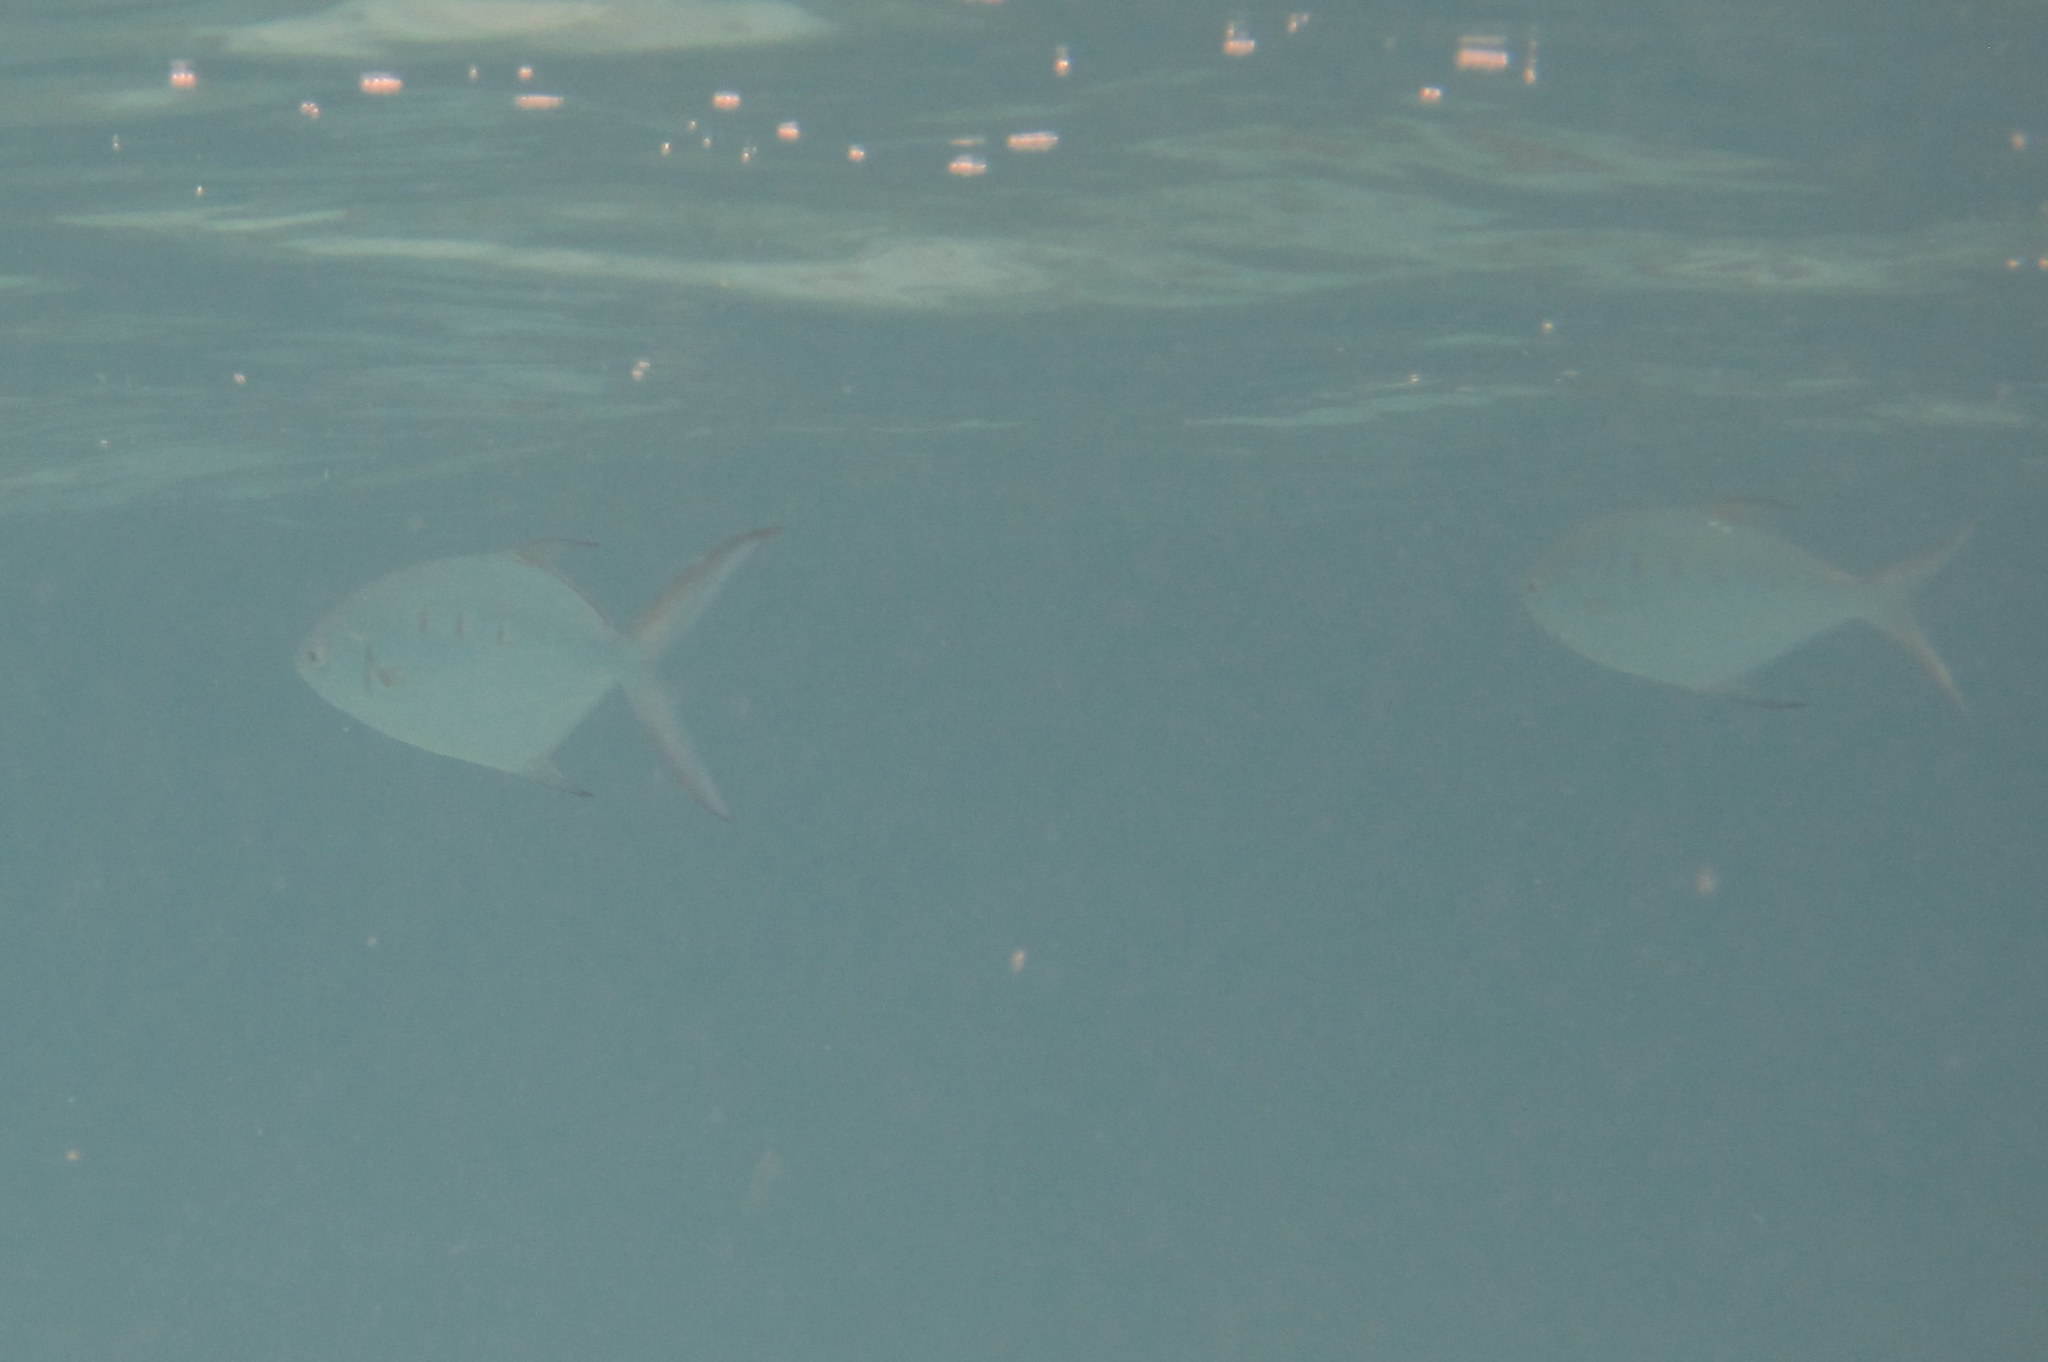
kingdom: Animalia
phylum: Chordata
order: Perciformes
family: Carangidae
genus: Trachinotus
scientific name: Trachinotus coppingeri
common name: Swallowtail dart
